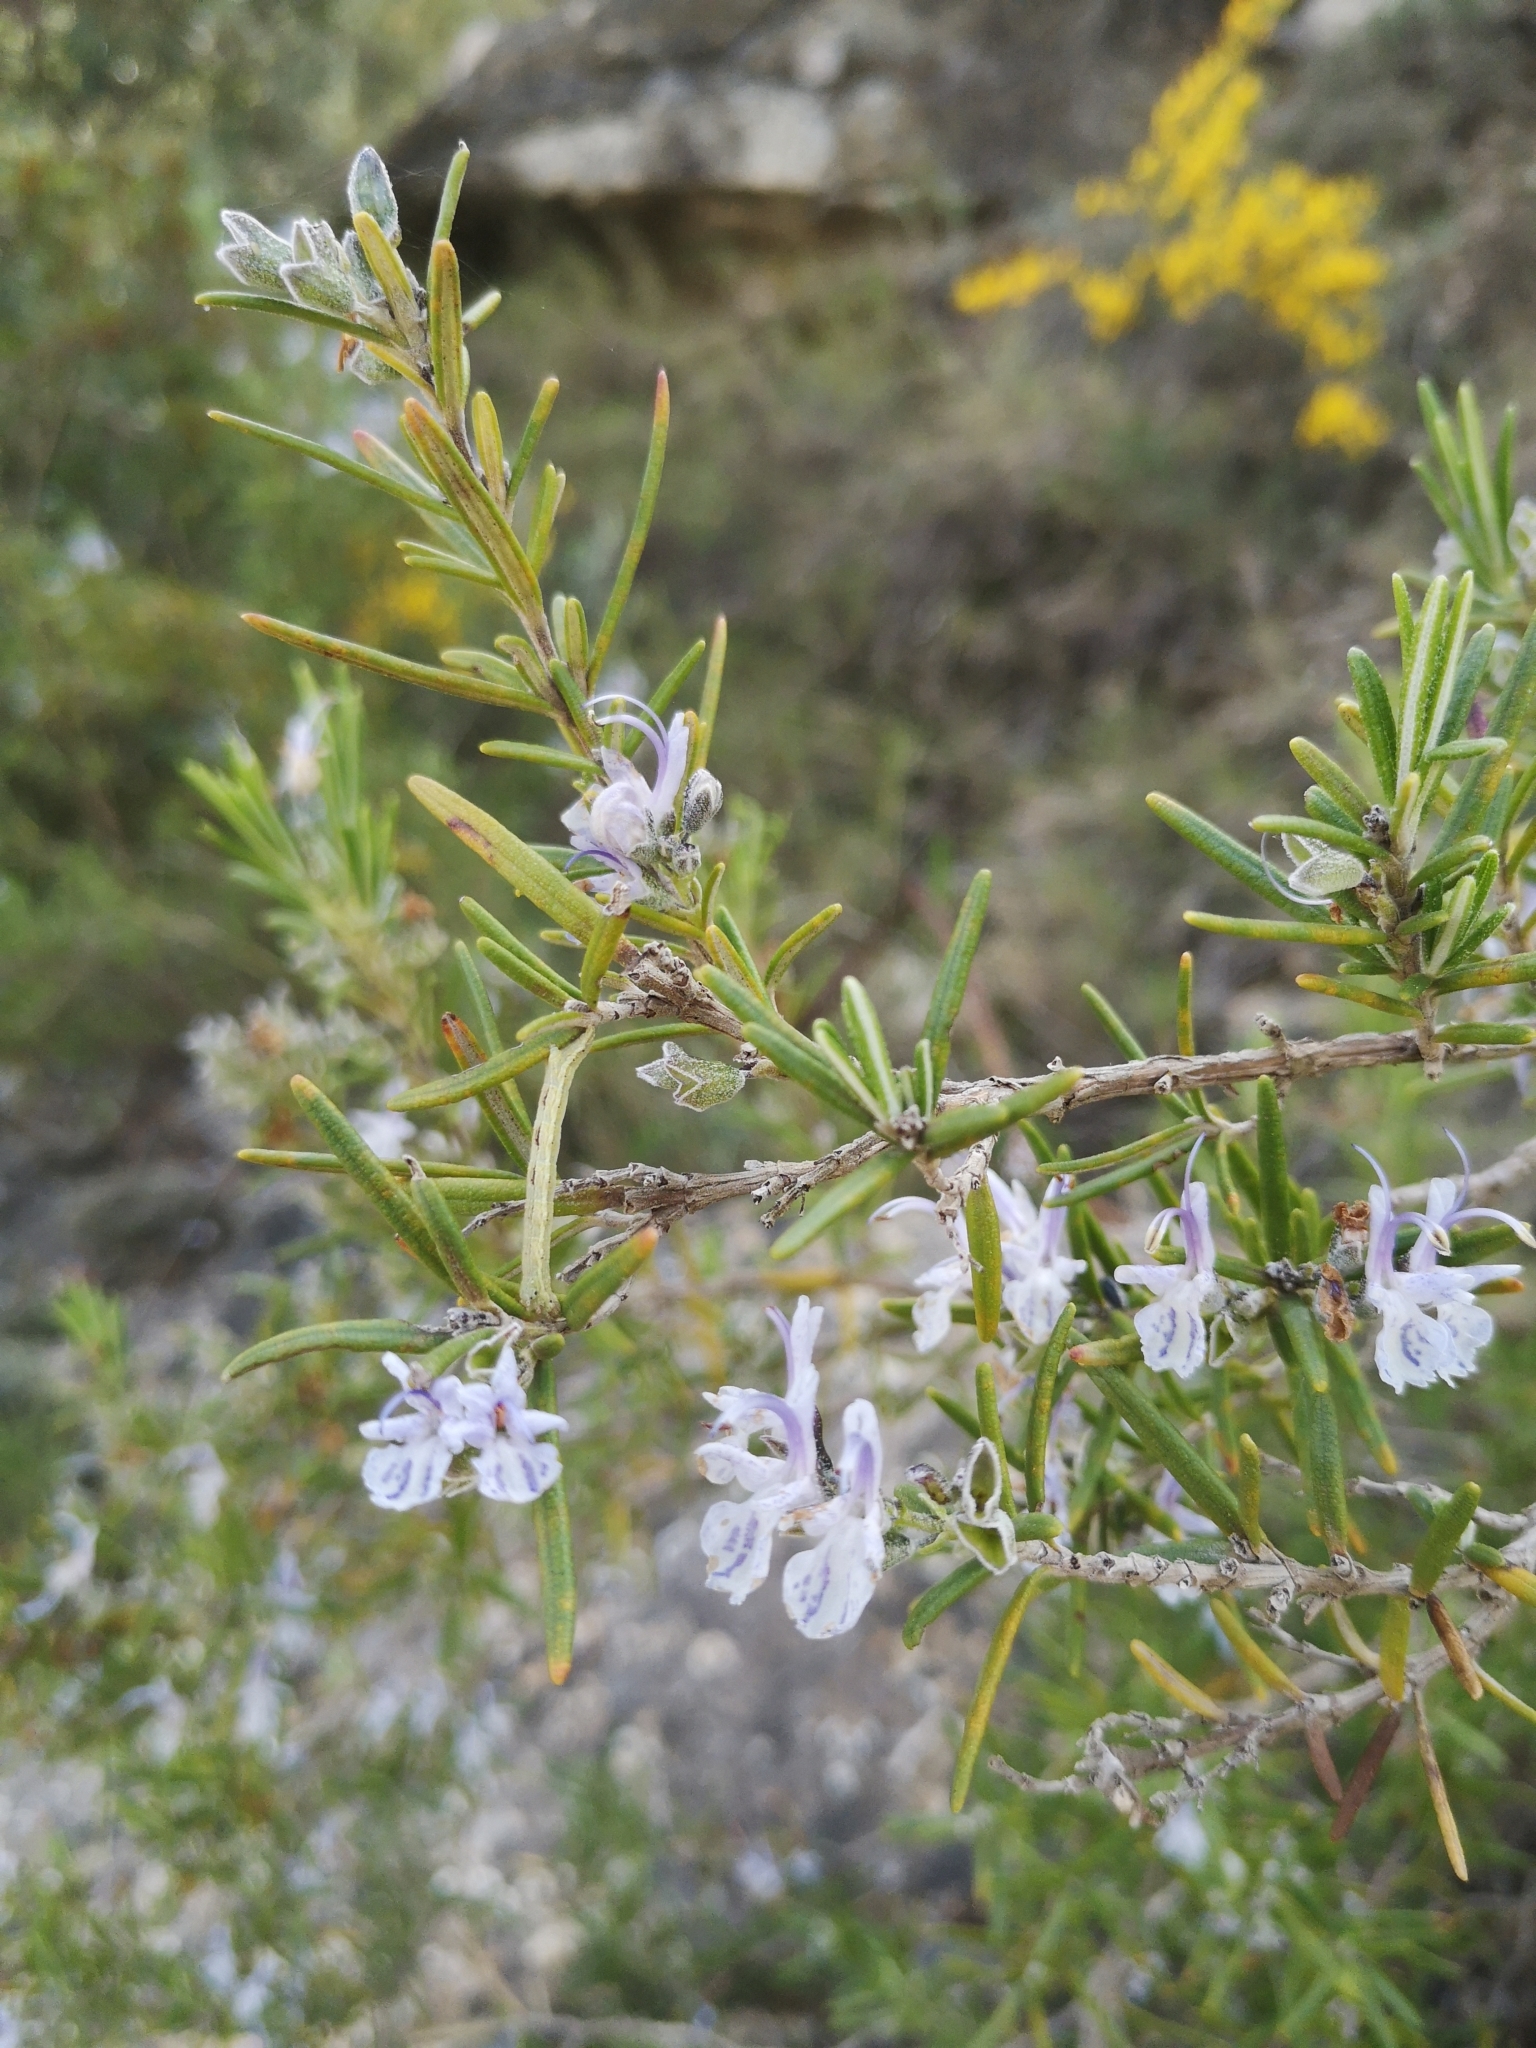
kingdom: Plantae
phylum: Tracheophyta
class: Magnoliopsida
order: Lamiales
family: Lamiaceae
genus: Salvia
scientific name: Salvia rosmarinus
